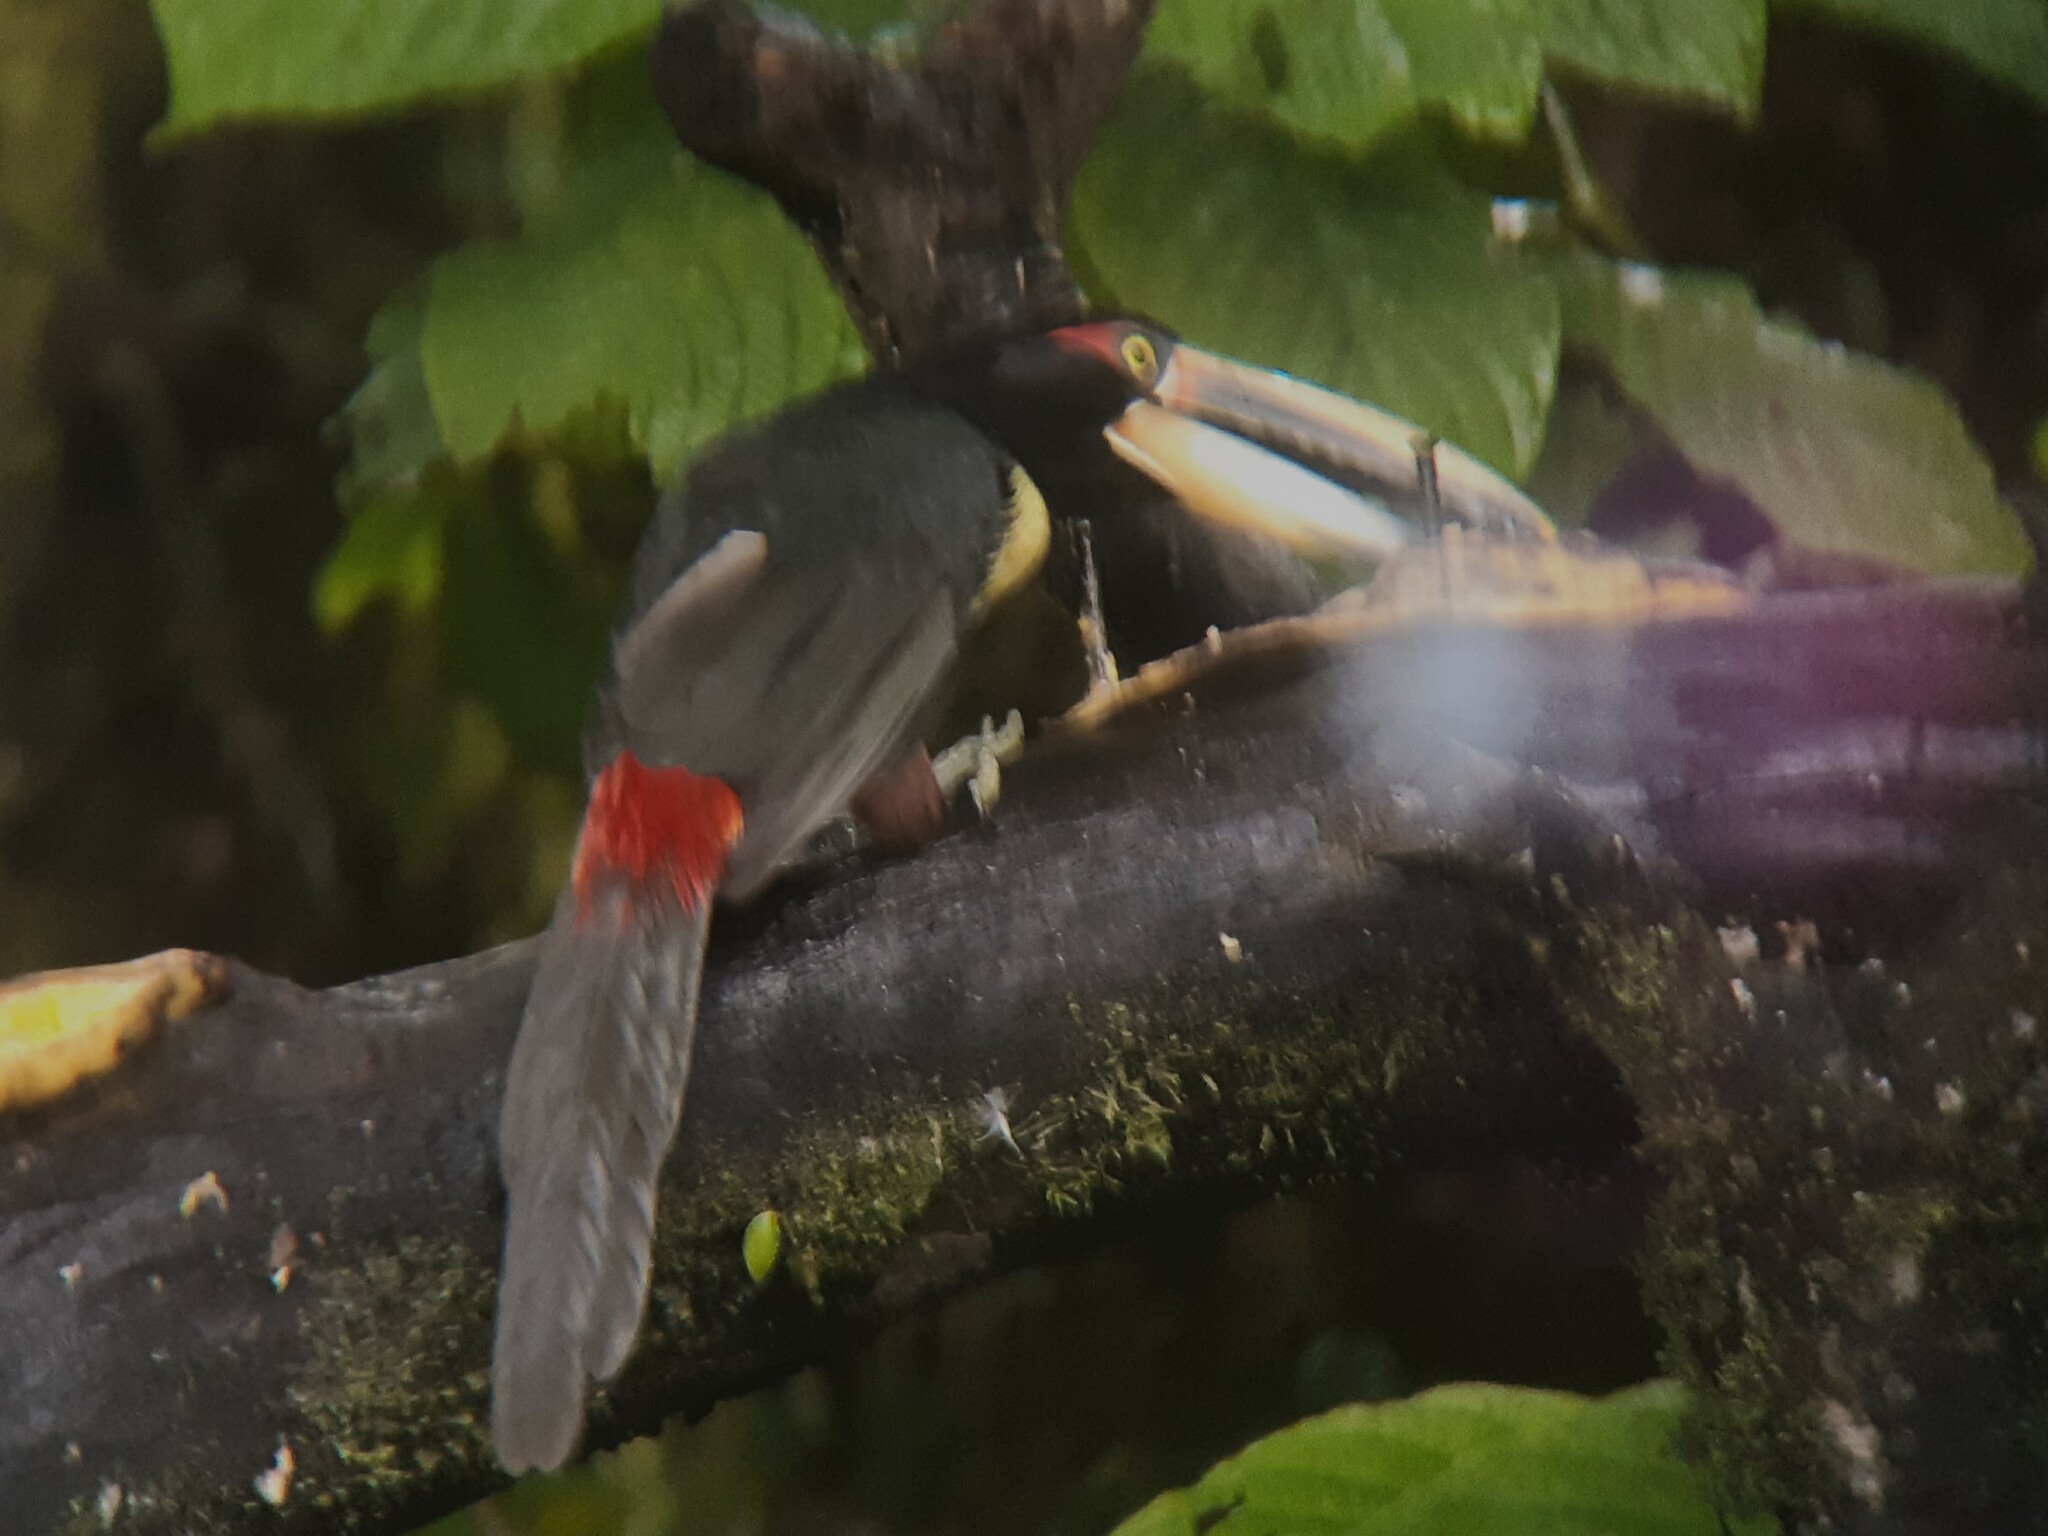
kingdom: Animalia
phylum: Chordata
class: Aves
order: Piciformes
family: Ramphastidae
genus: Pteroglossus
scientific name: Pteroglossus torquatus
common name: Collared aracari
